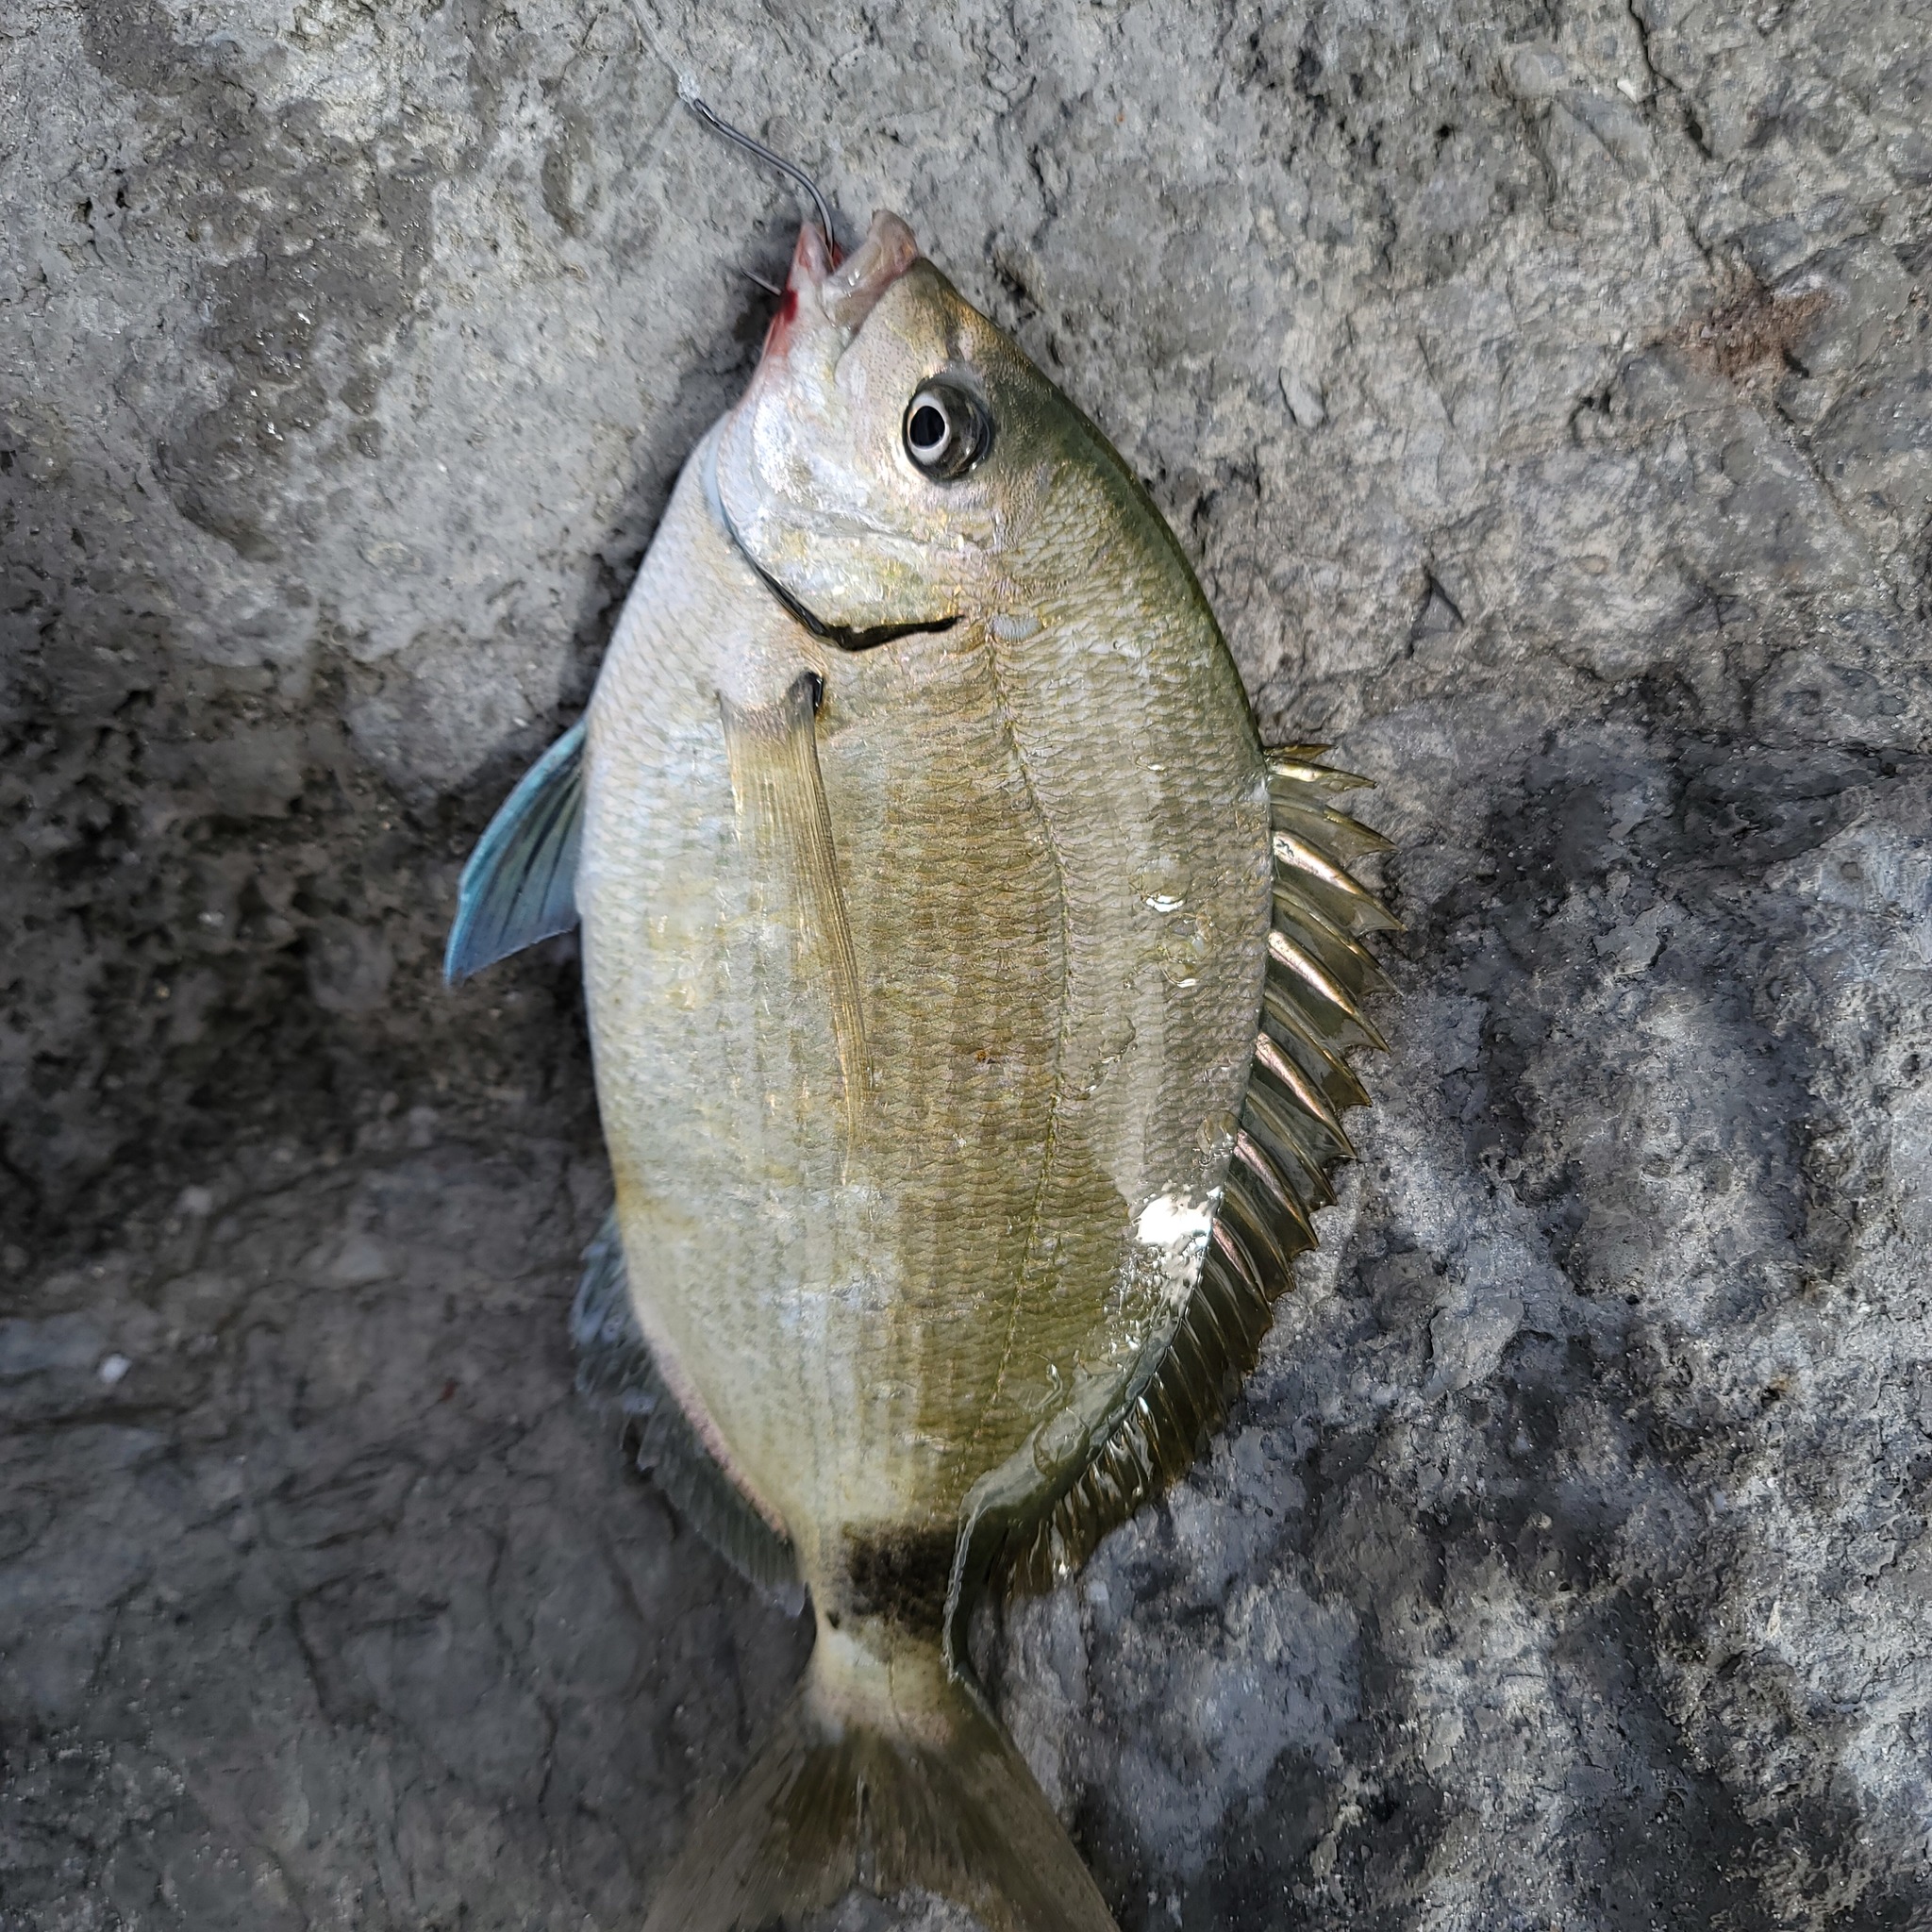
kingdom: Animalia
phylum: Chordata
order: Perciformes
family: Sparidae
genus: Diplodus
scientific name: Diplodus holbrookii
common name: Porgy
